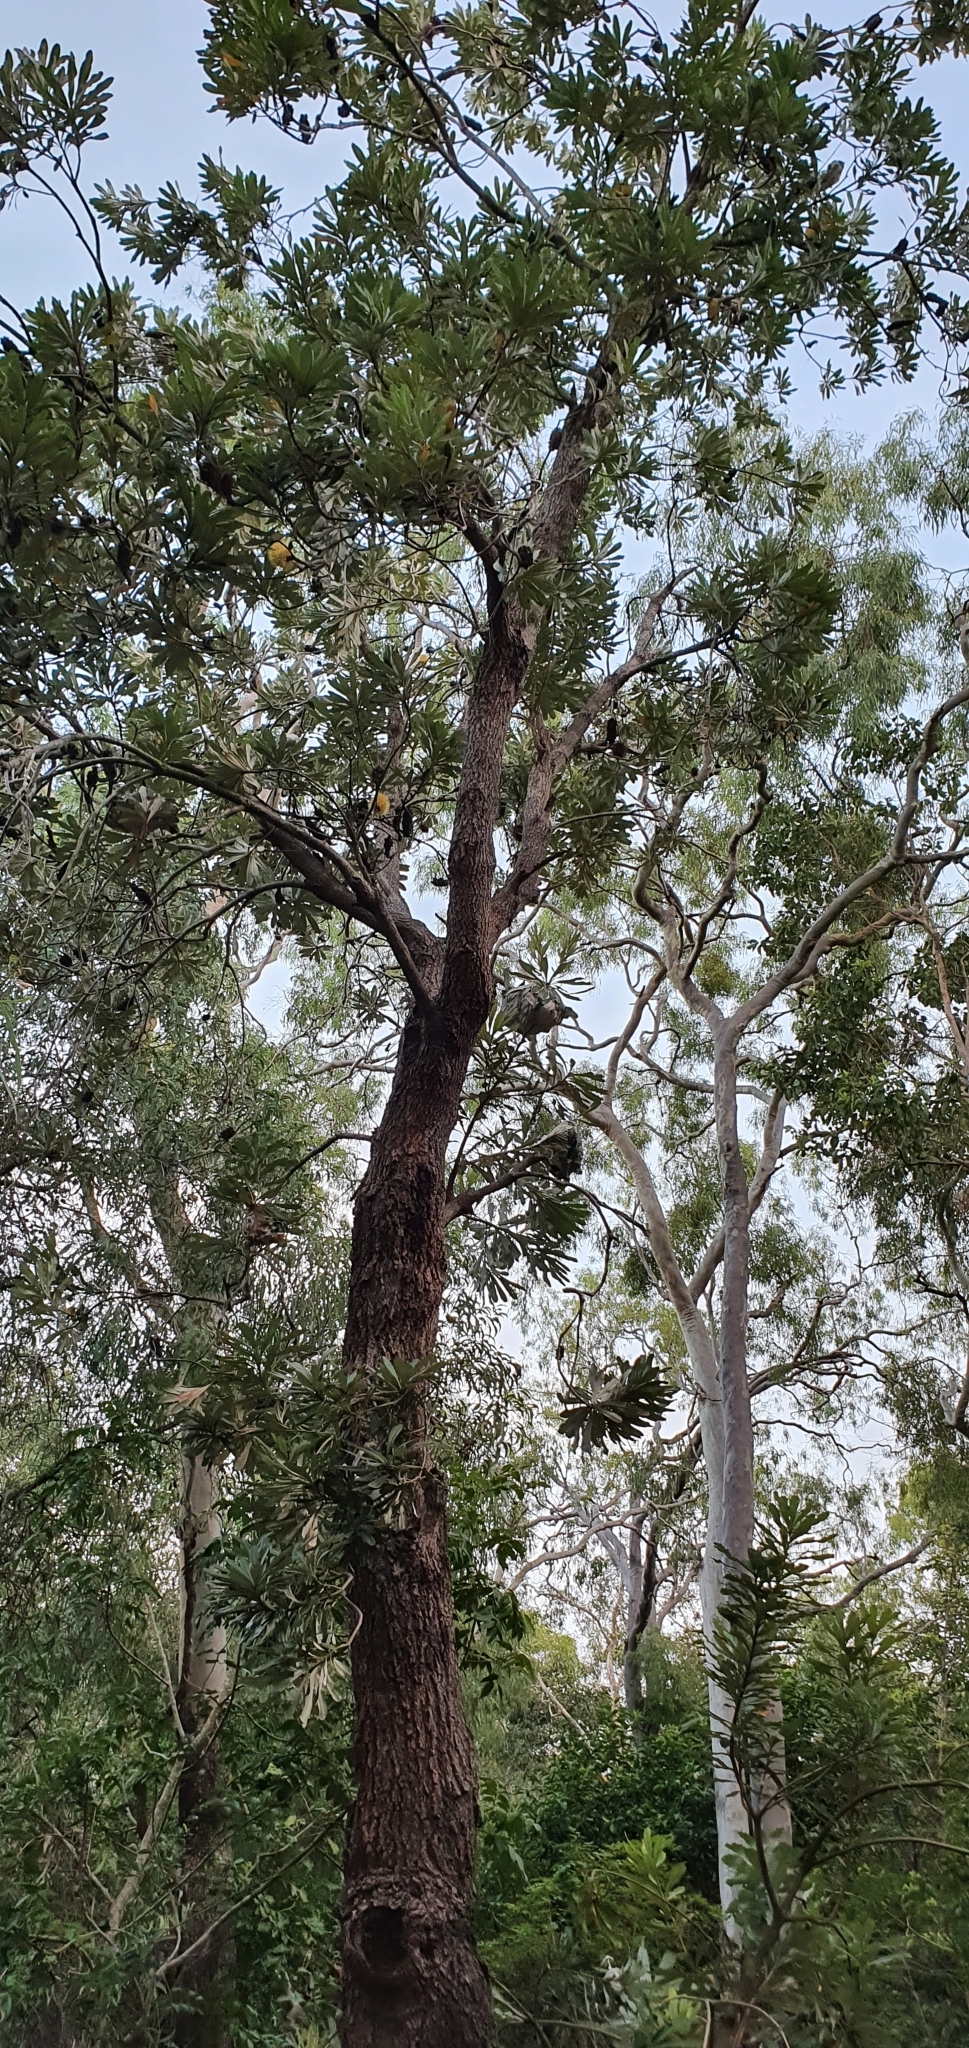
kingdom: Plantae
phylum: Tracheophyta
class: Magnoliopsida
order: Proteales
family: Proteaceae
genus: Banksia
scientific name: Banksia integrifolia
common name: White-honeysuckle
